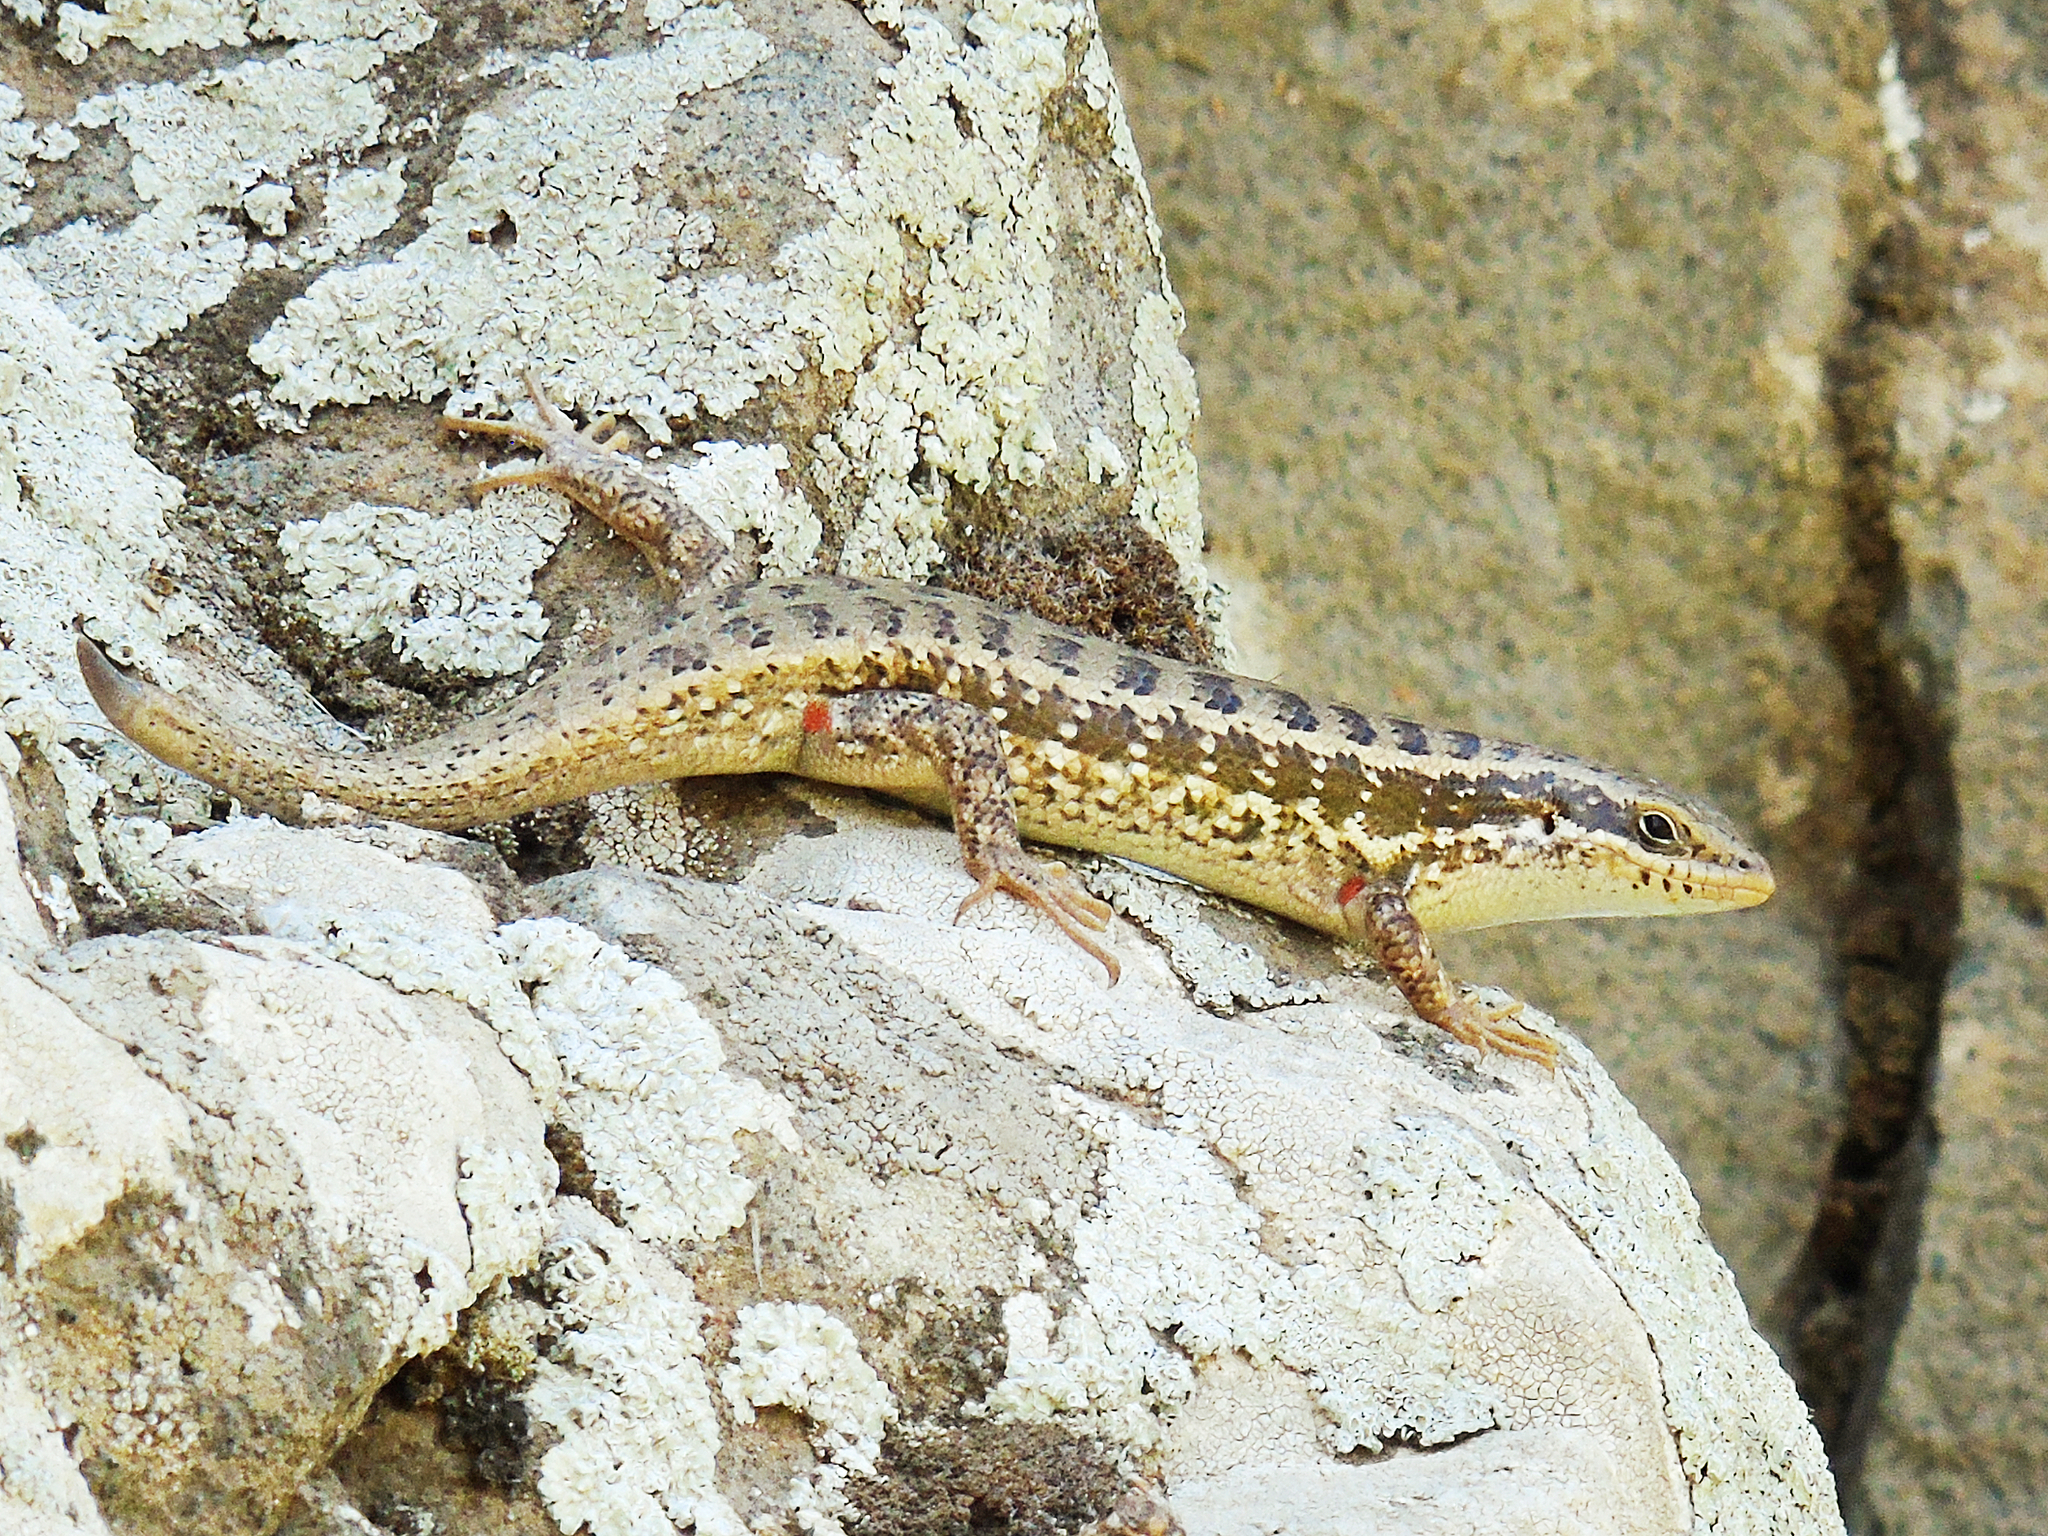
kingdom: Animalia
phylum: Chordata
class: Squamata
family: Scincidae
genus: Heremites
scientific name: Heremites auratus
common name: Golden grass mabuya
